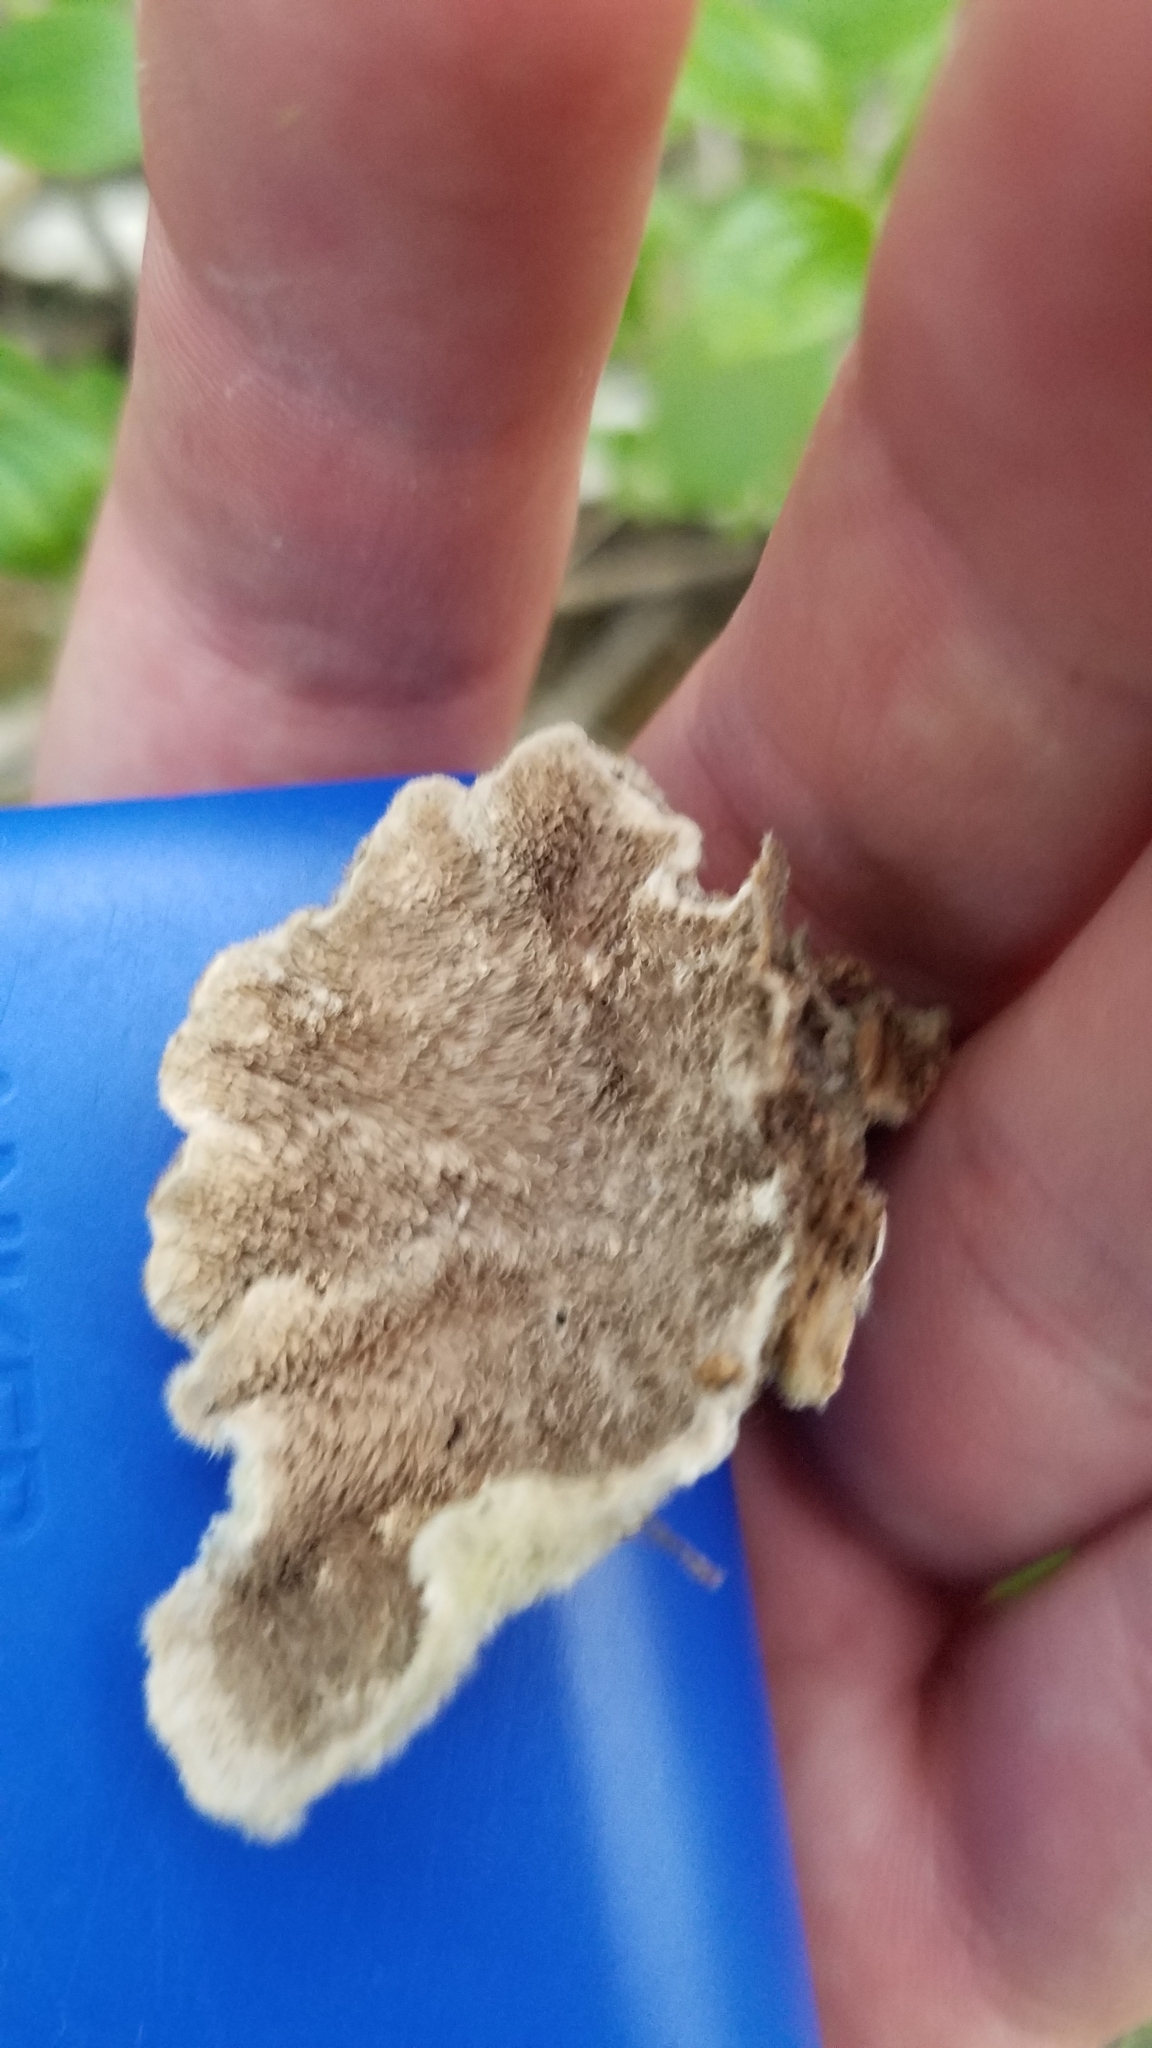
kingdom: Fungi
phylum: Basidiomycota
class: Agaricomycetes
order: Polyporales
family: Cerrenaceae
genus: Cerrena
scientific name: Cerrena unicolor
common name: Mossy maze polypore
